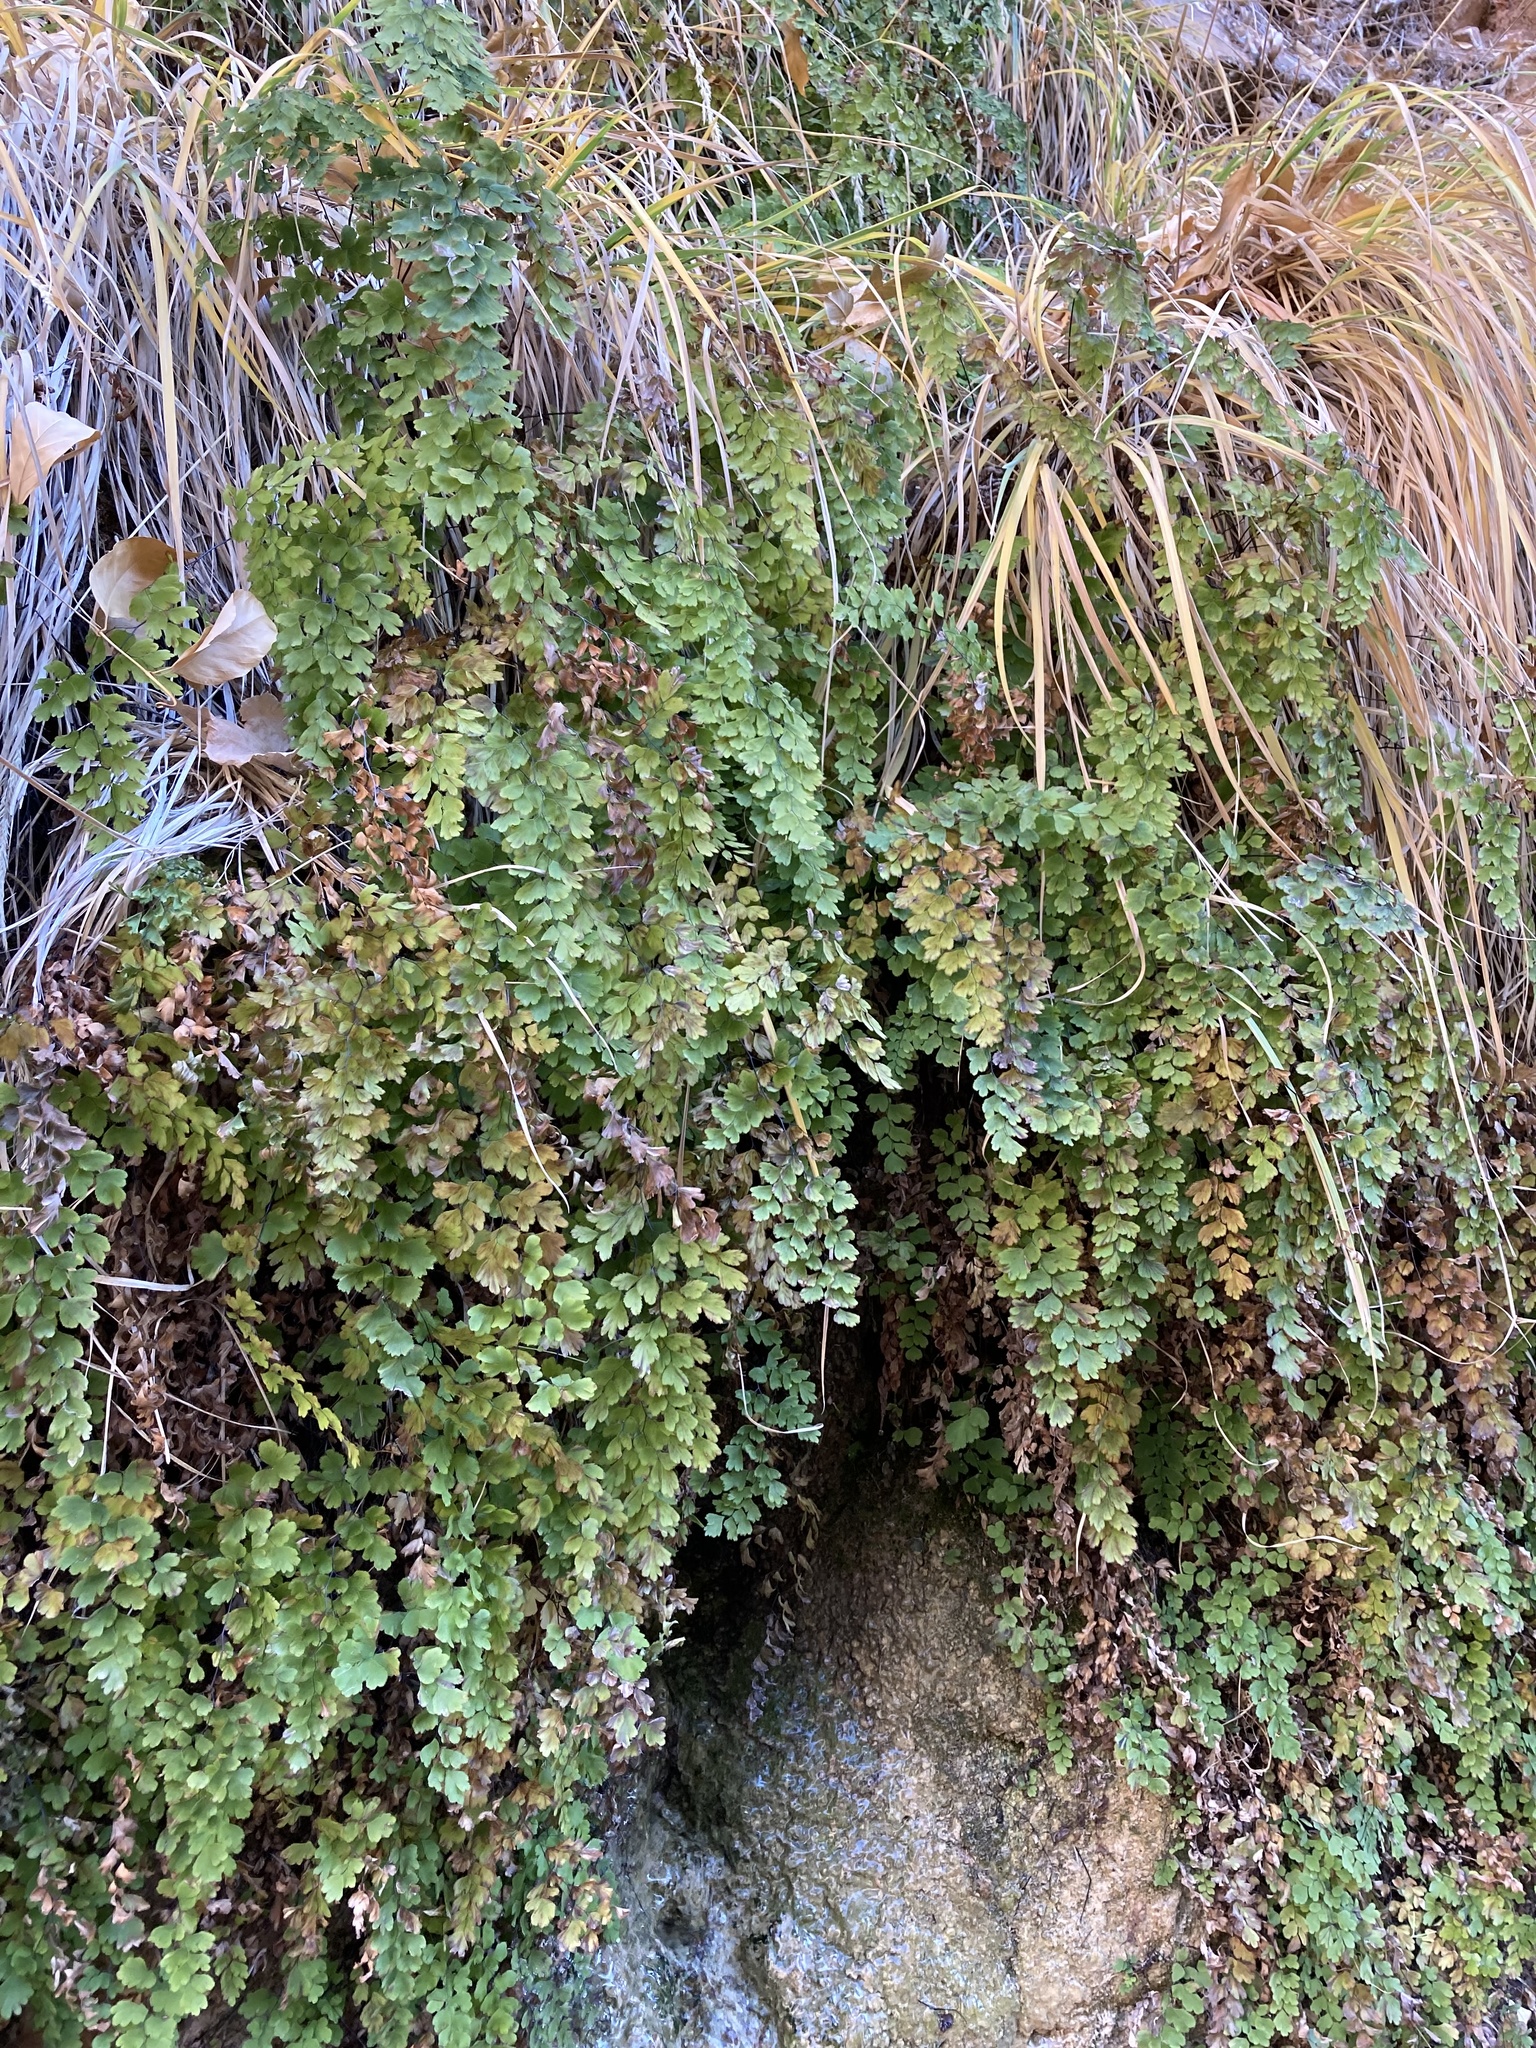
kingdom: Plantae
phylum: Tracheophyta
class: Polypodiopsida
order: Polypodiales
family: Pteridaceae
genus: Adiantum
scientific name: Adiantum capillus-veneris
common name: Maidenhair fern
